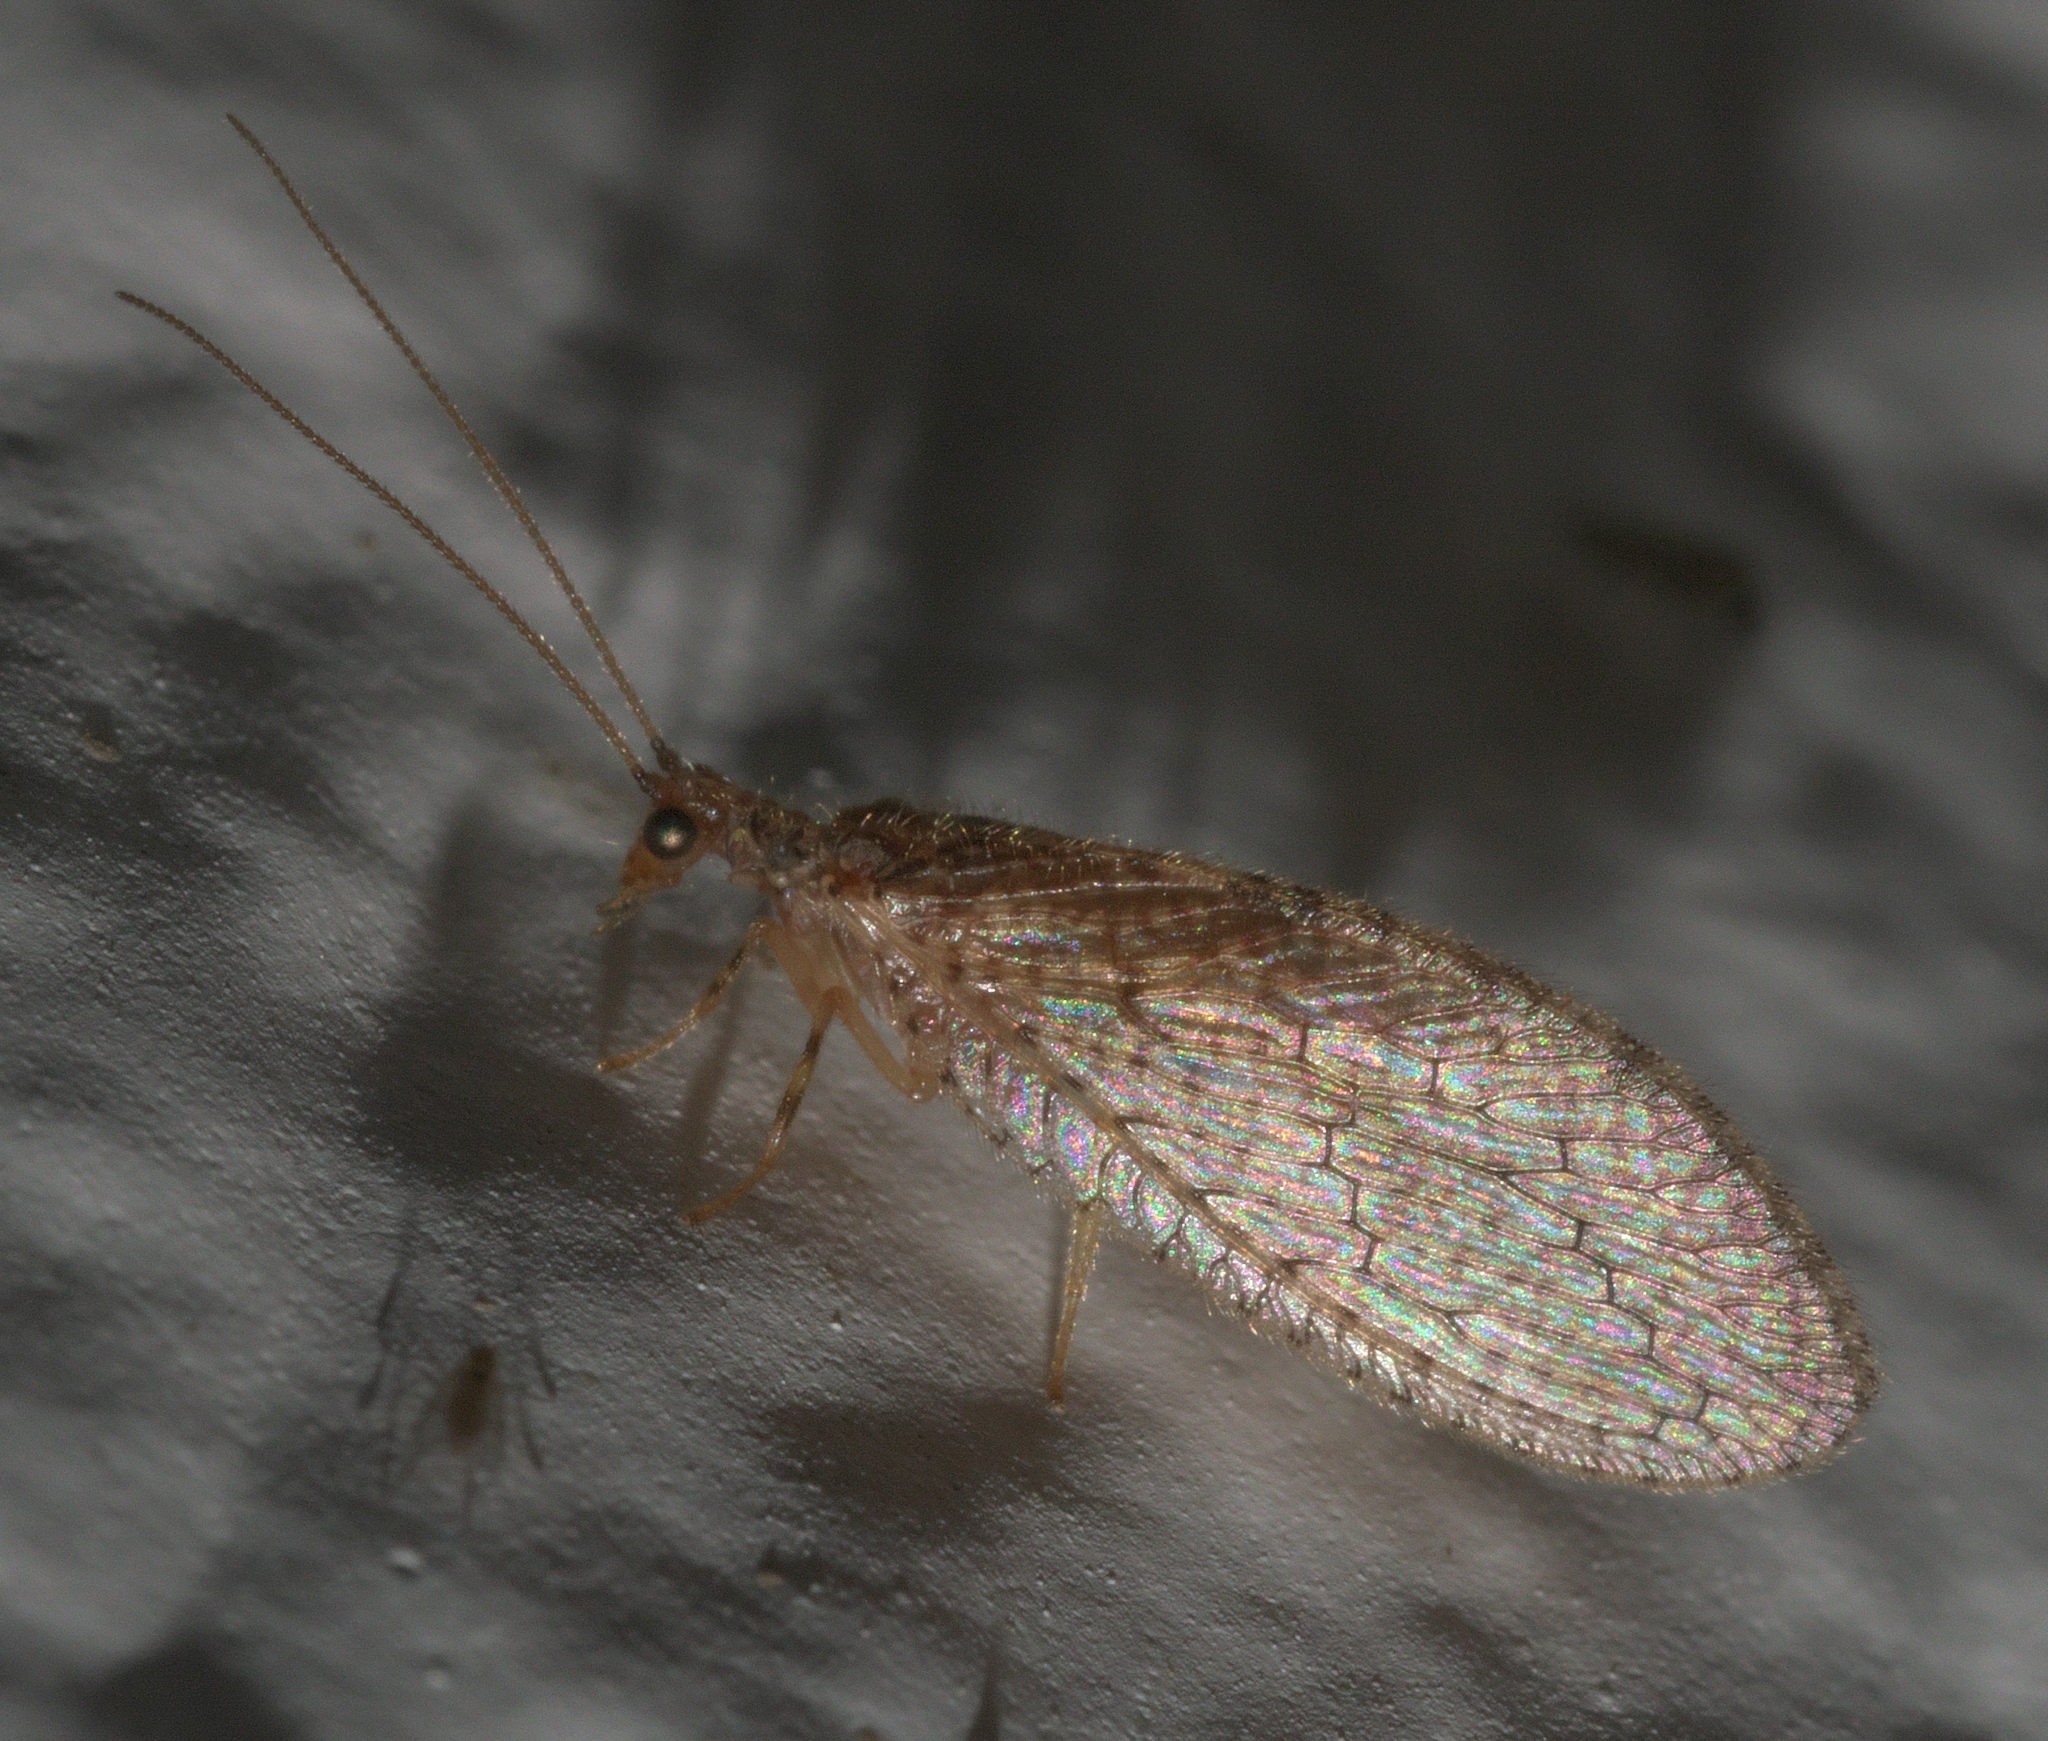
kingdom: Animalia
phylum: Arthropoda
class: Insecta
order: Neuroptera
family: Hemerobiidae
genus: Micromus
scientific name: Micromus posticus
